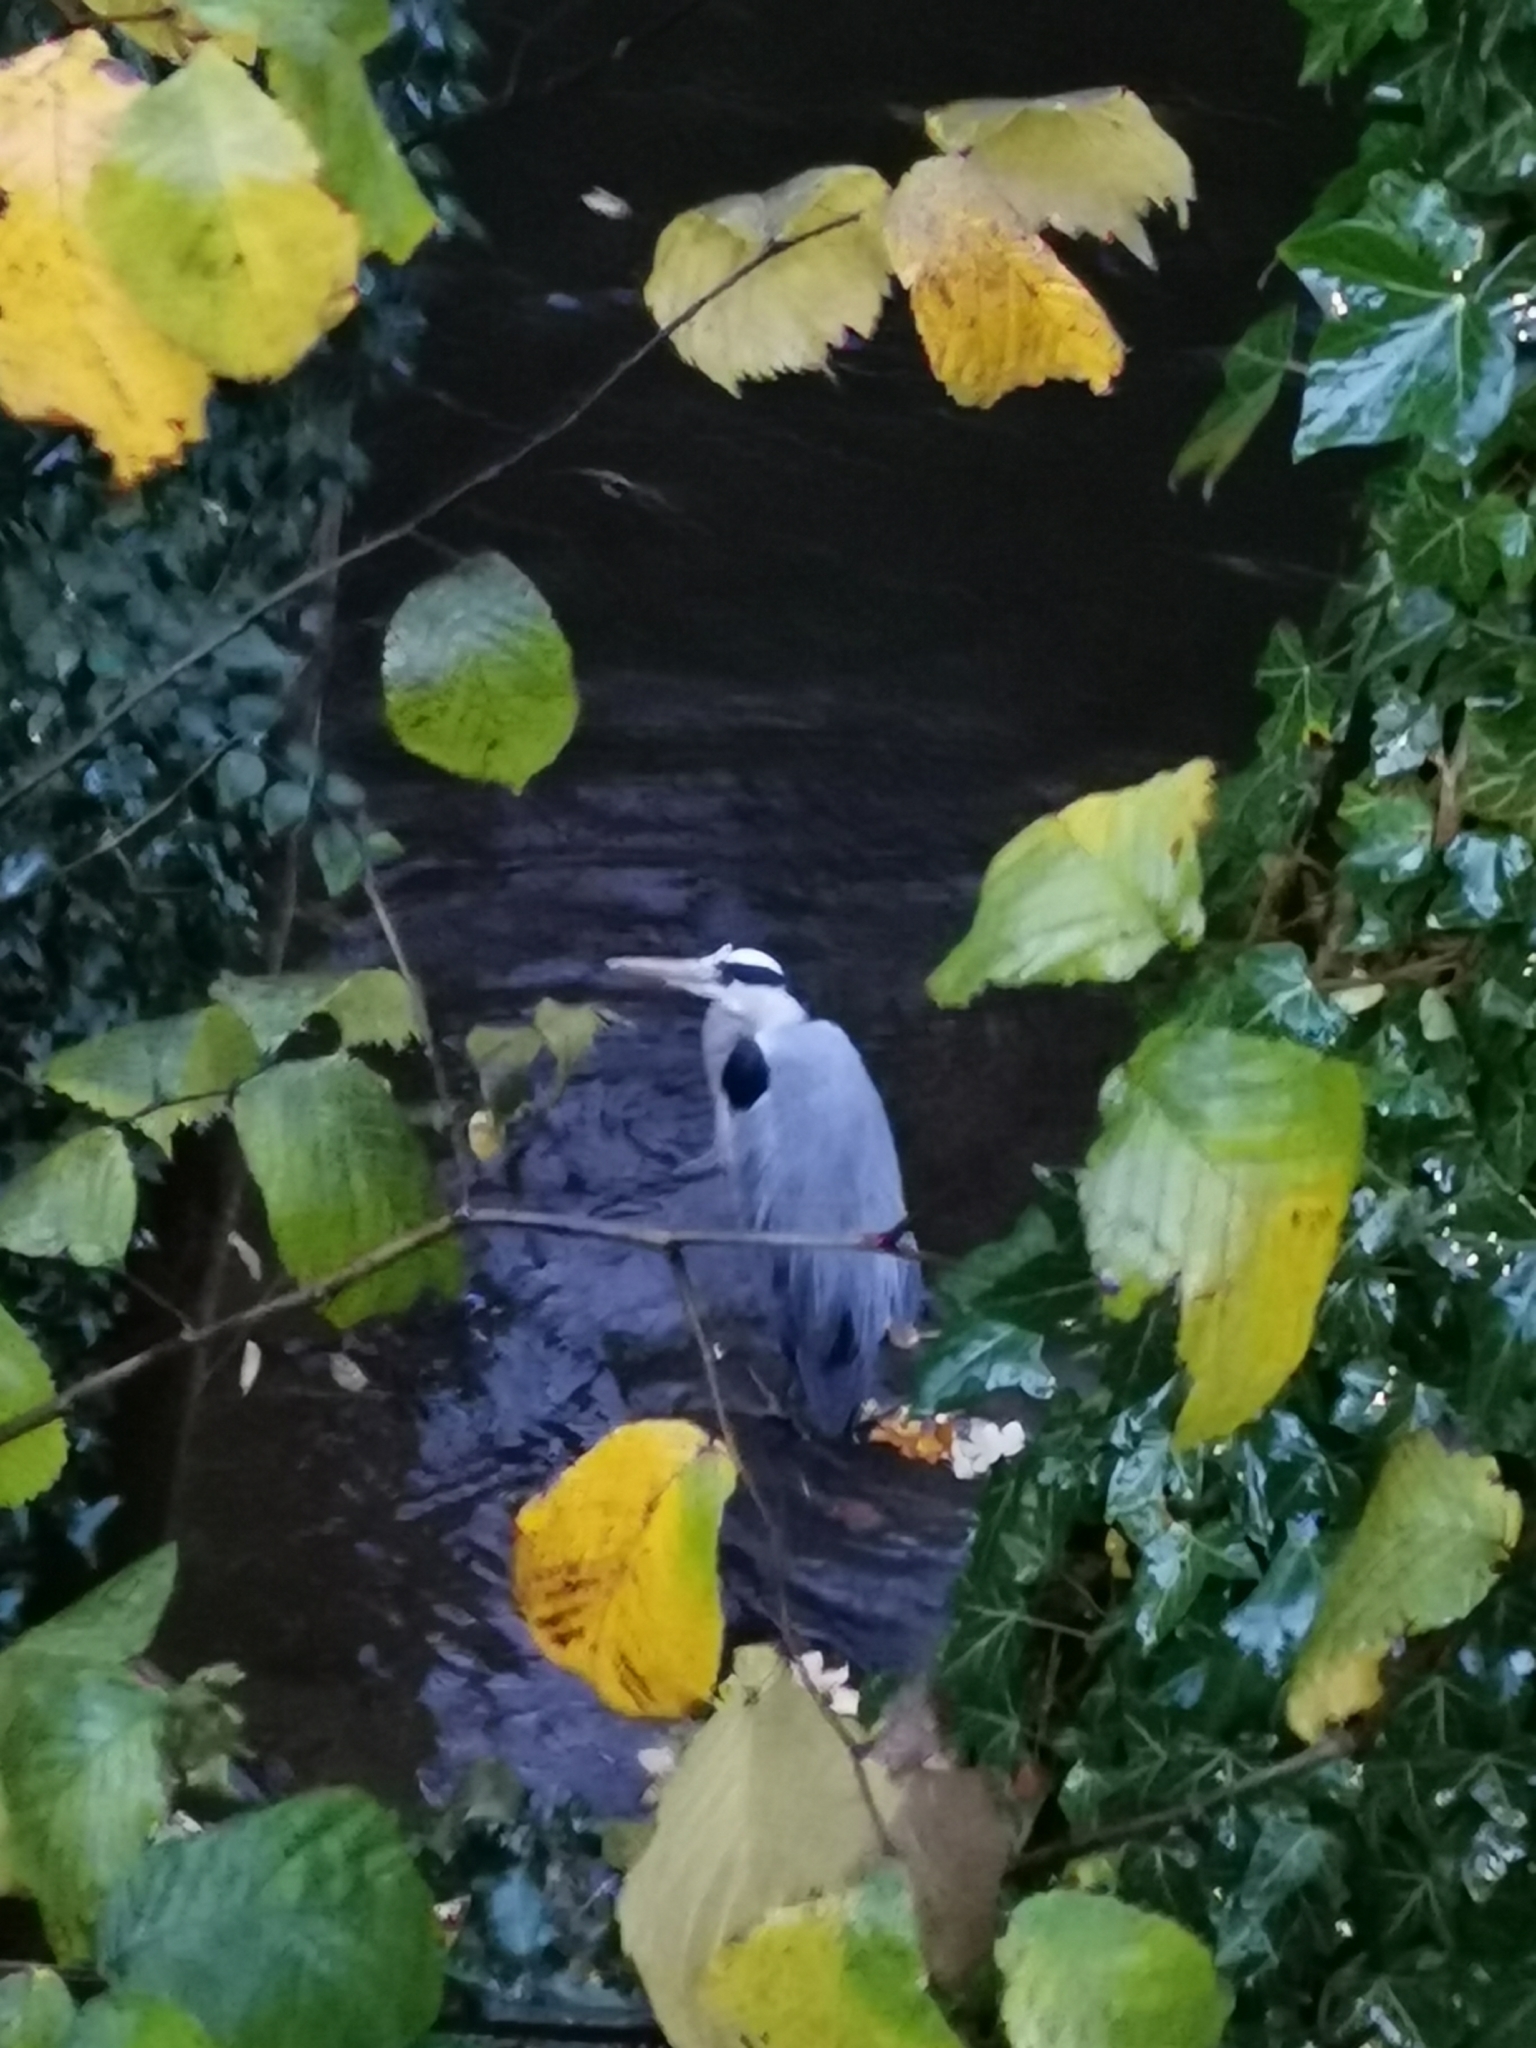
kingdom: Animalia
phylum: Chordata
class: Aves
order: Pelecaniformes
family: Ardeidae
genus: Ardea
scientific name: Ardea cinerea
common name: Grey heron
